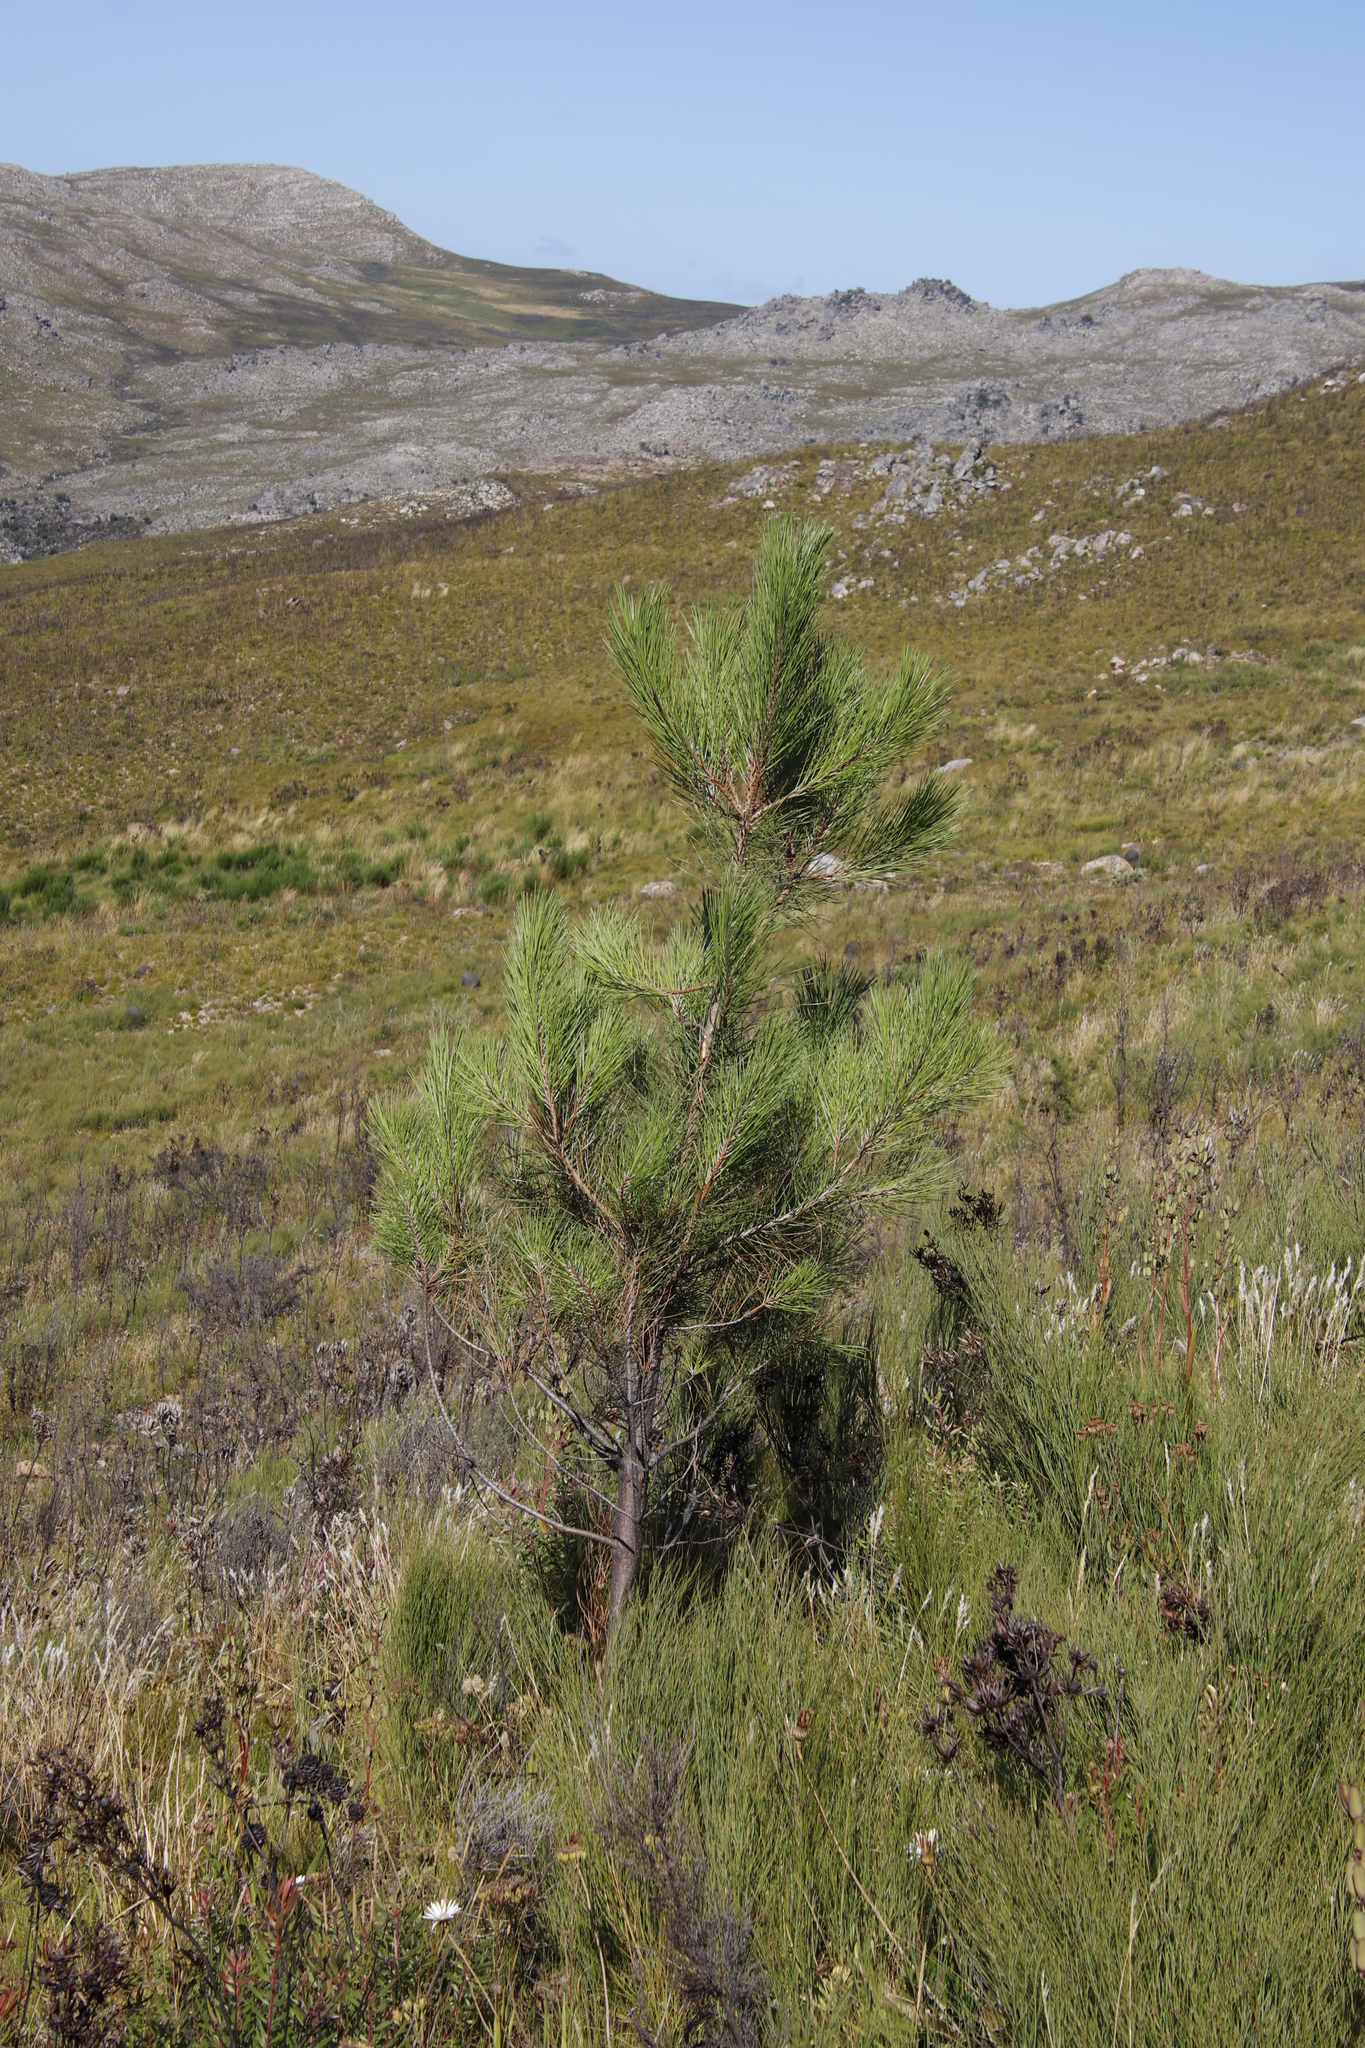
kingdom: Plantae
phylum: Tracheophyta
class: Pinopsida
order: Pinales
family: Pinaceae
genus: Pinus
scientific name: Pinus pinaster
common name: Maritime pine
